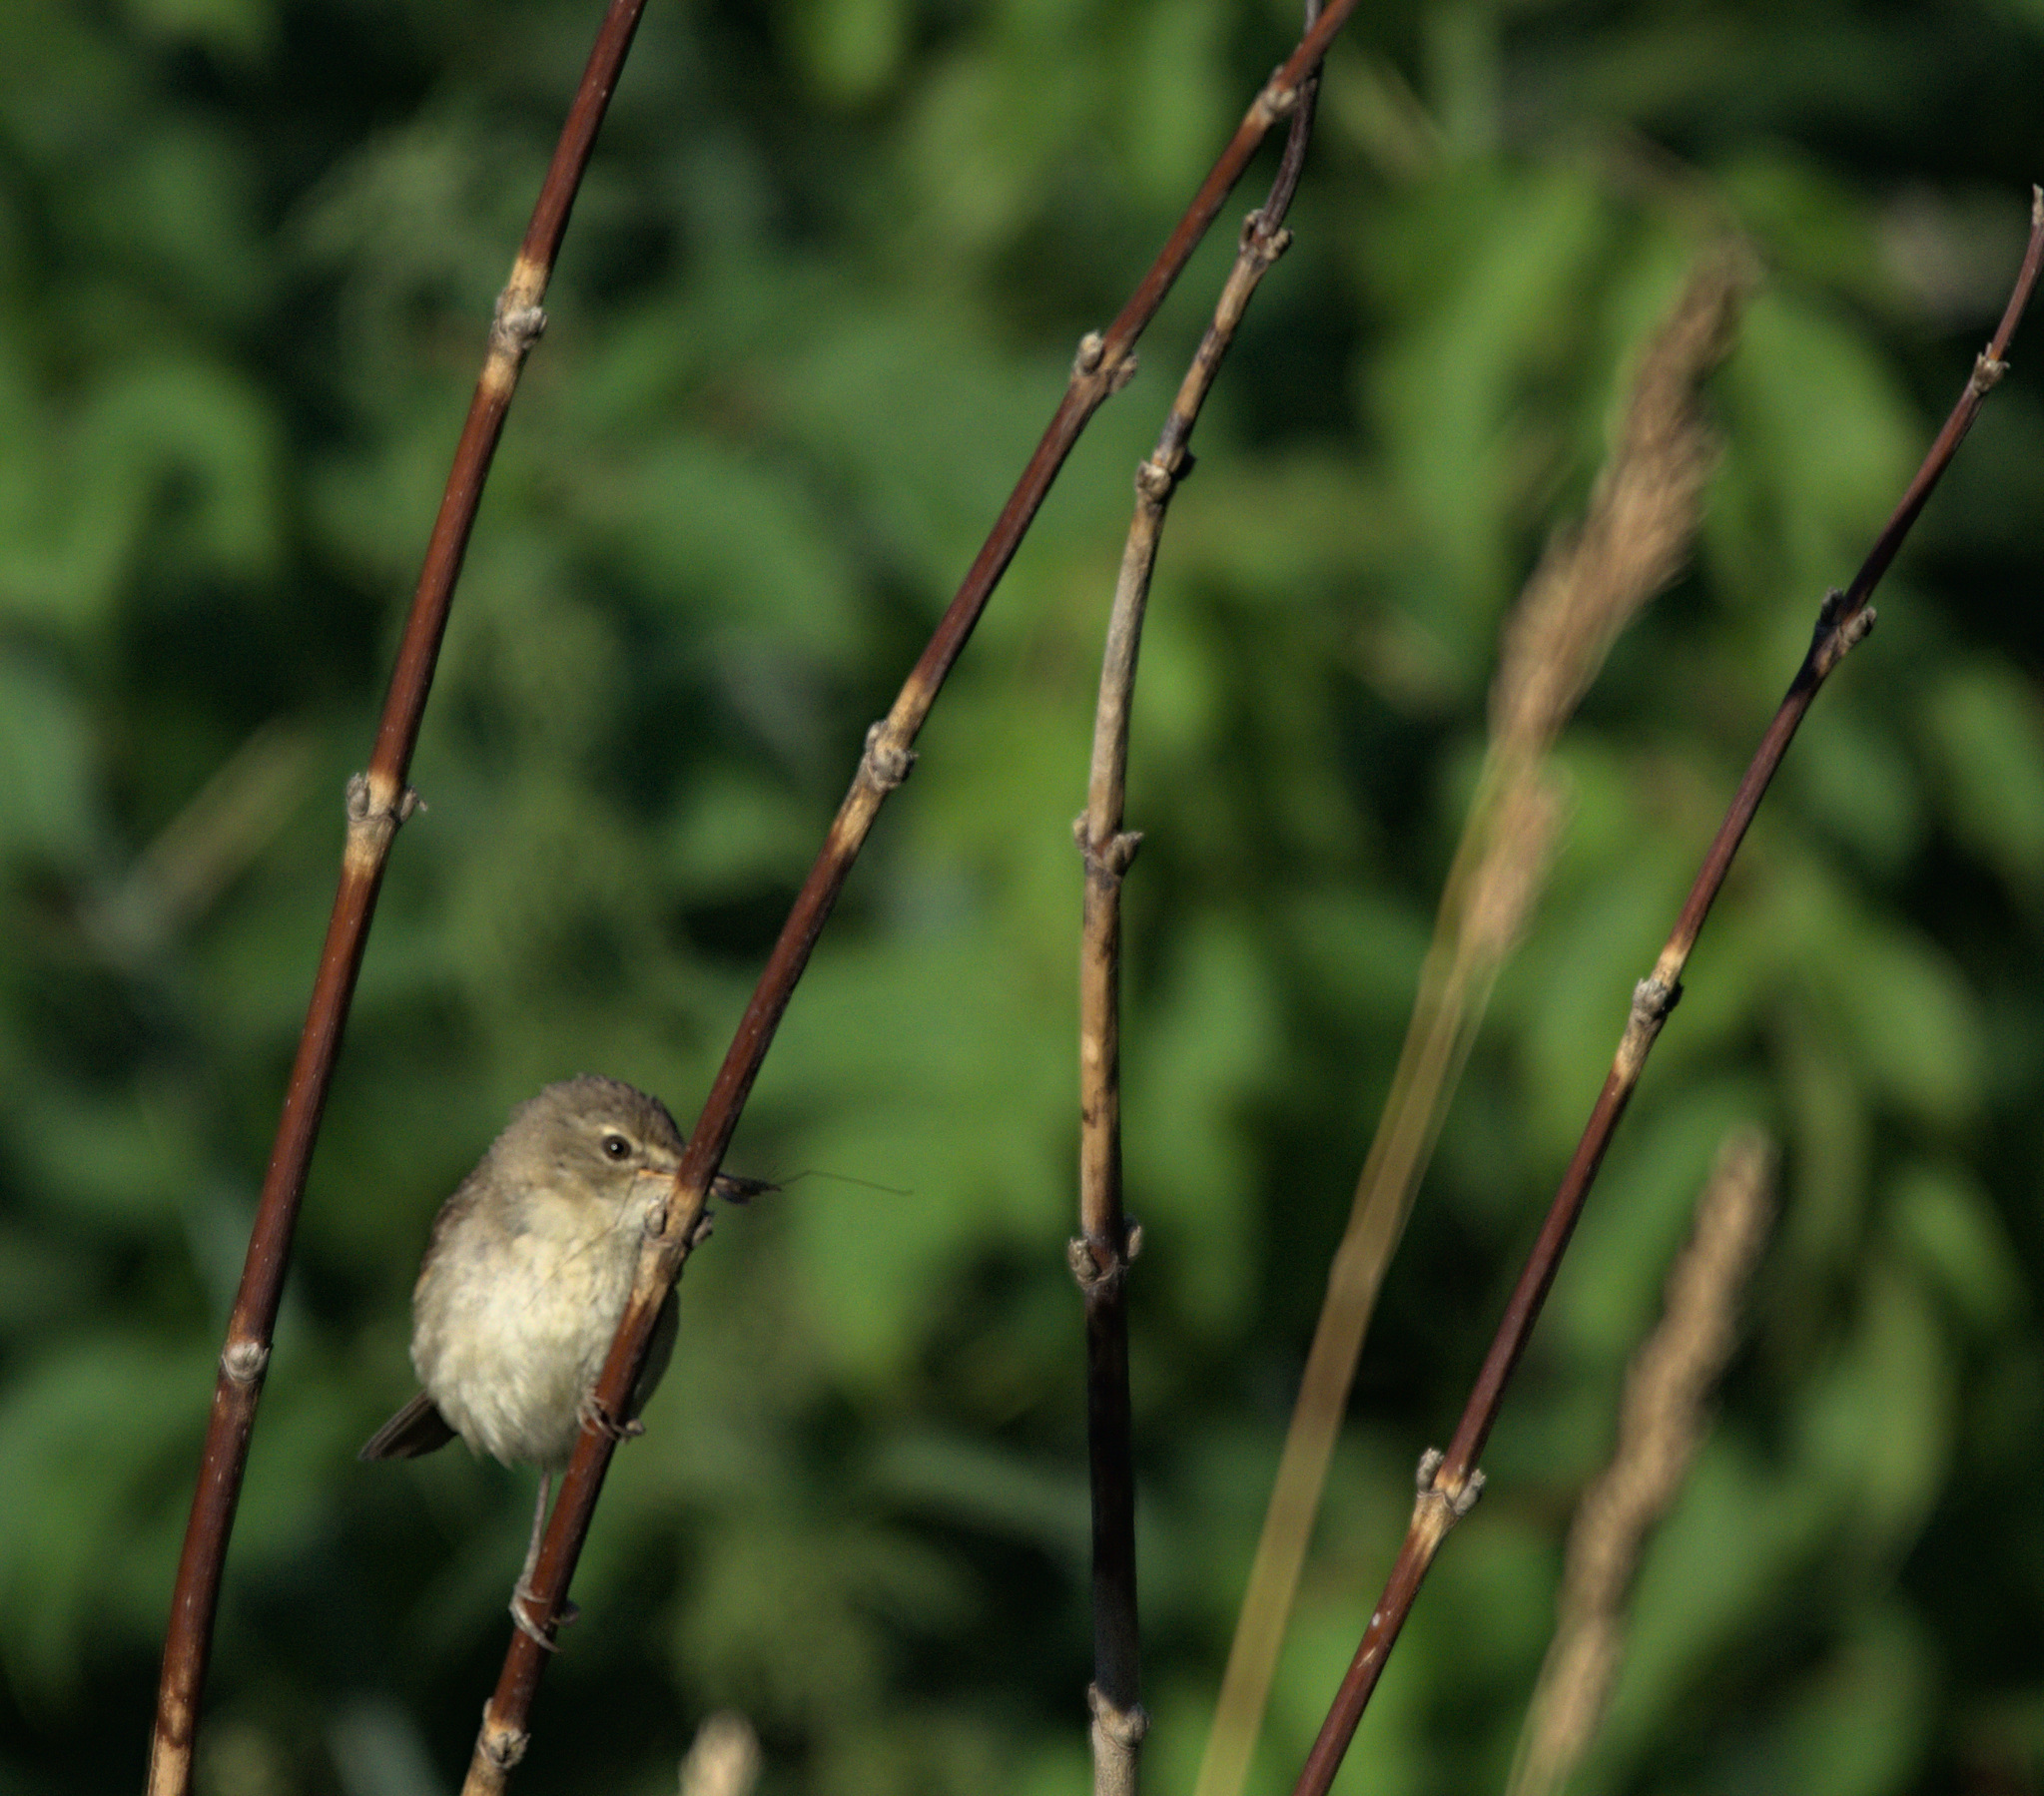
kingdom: Animalia
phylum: Chordata
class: Aves
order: Passeriformes
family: Acrocephalidae
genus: Acrocephalus
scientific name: Acrocephalus dumetorum
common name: Blyth's reed warbler
